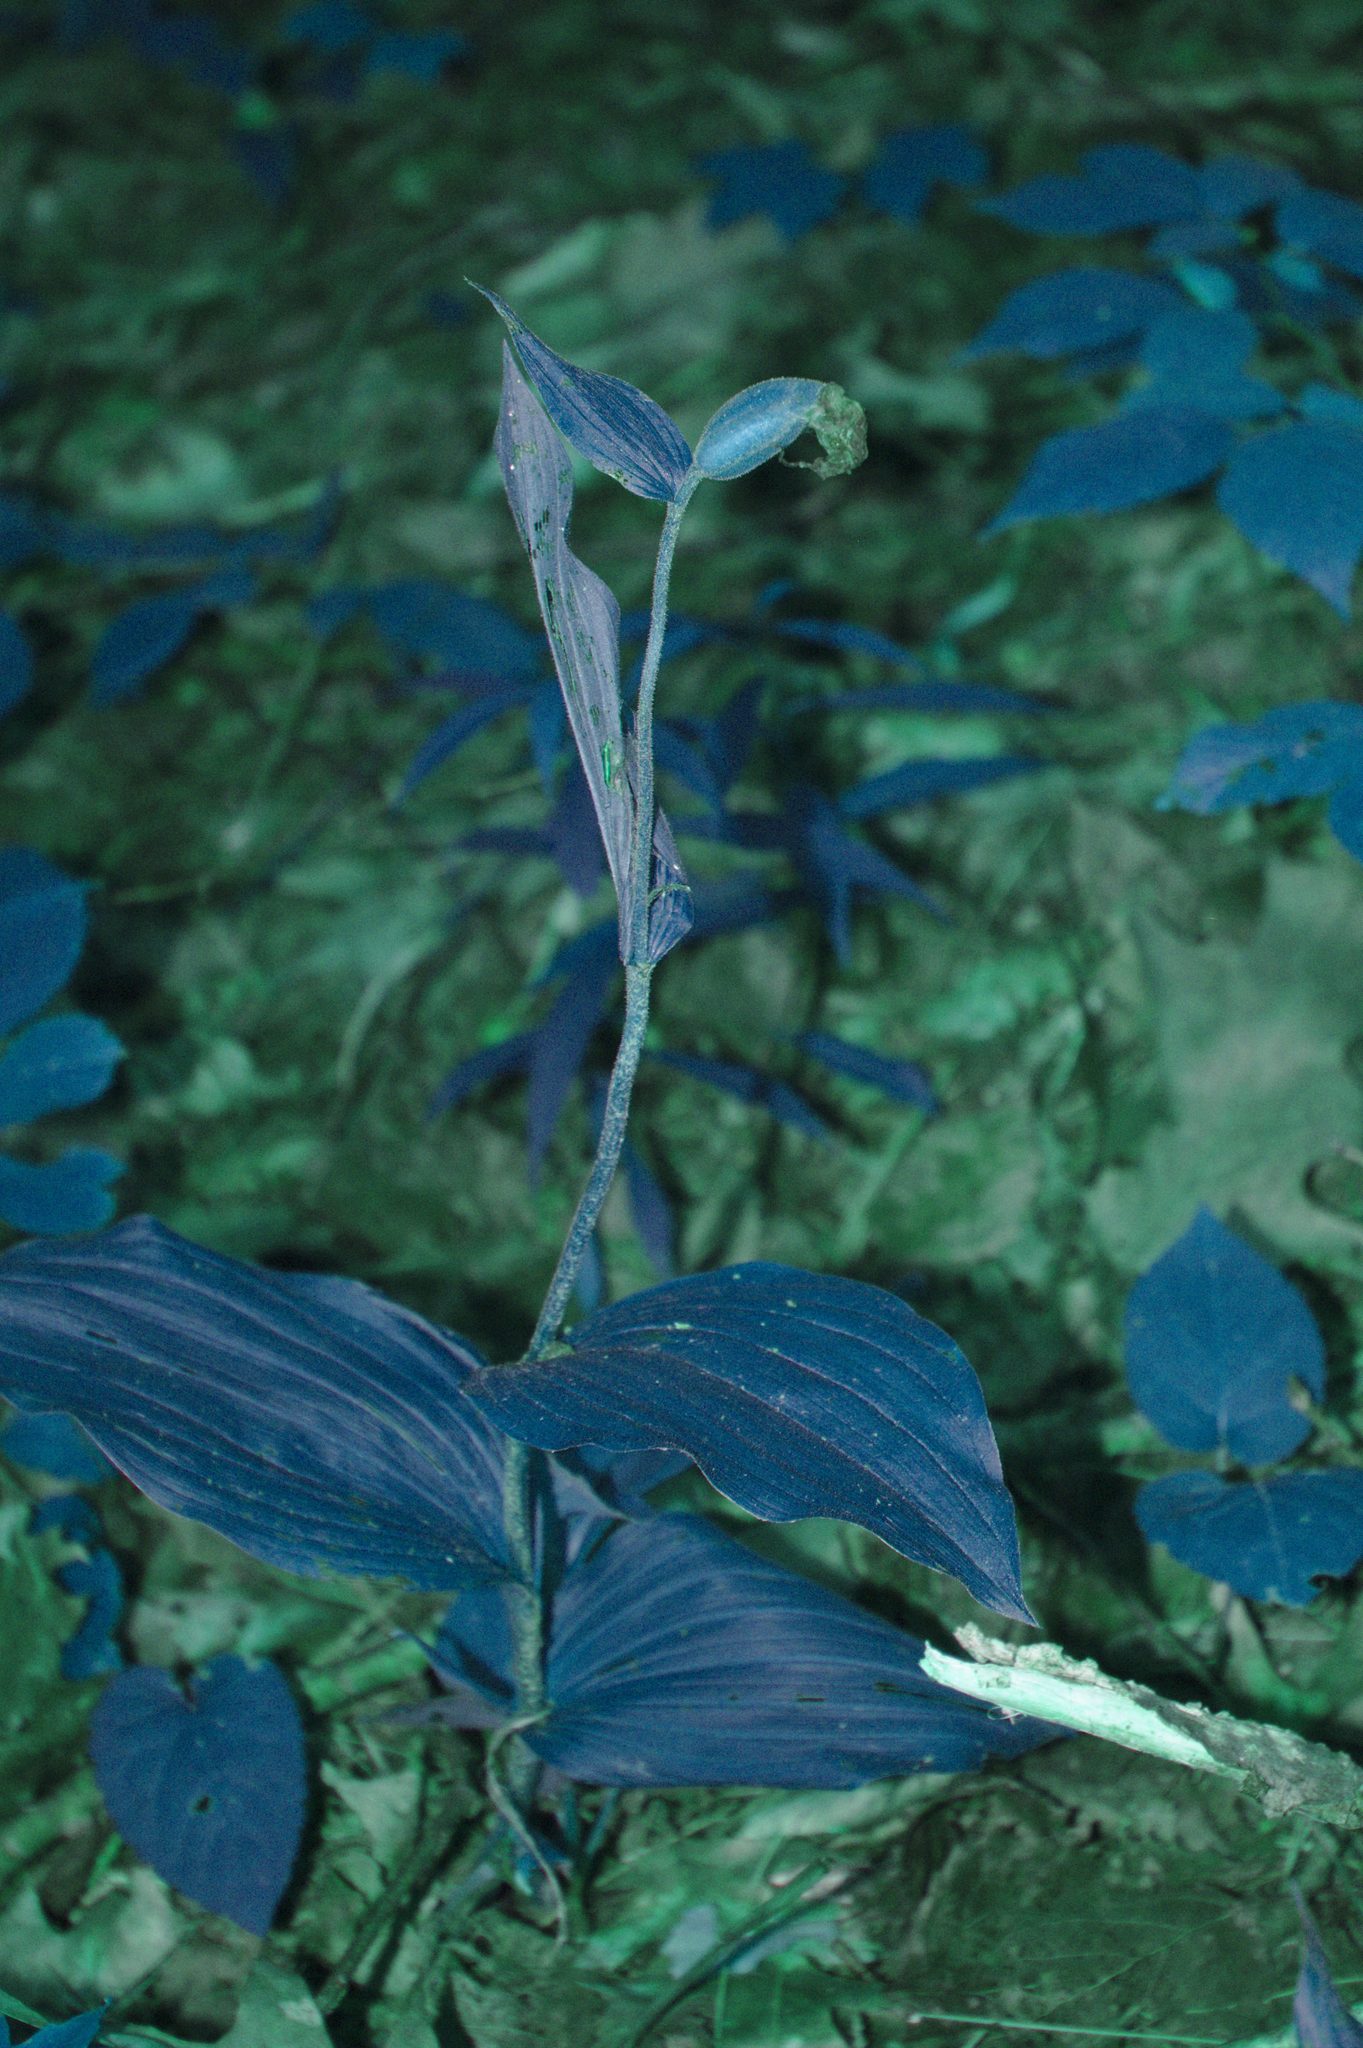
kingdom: Plantae
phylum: Tracheophyta
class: Liliopsida
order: Asparagales
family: Orchidaceae
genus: Cypripedium
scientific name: Cypripedium parviflorum
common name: American yellow lady's-slipper
